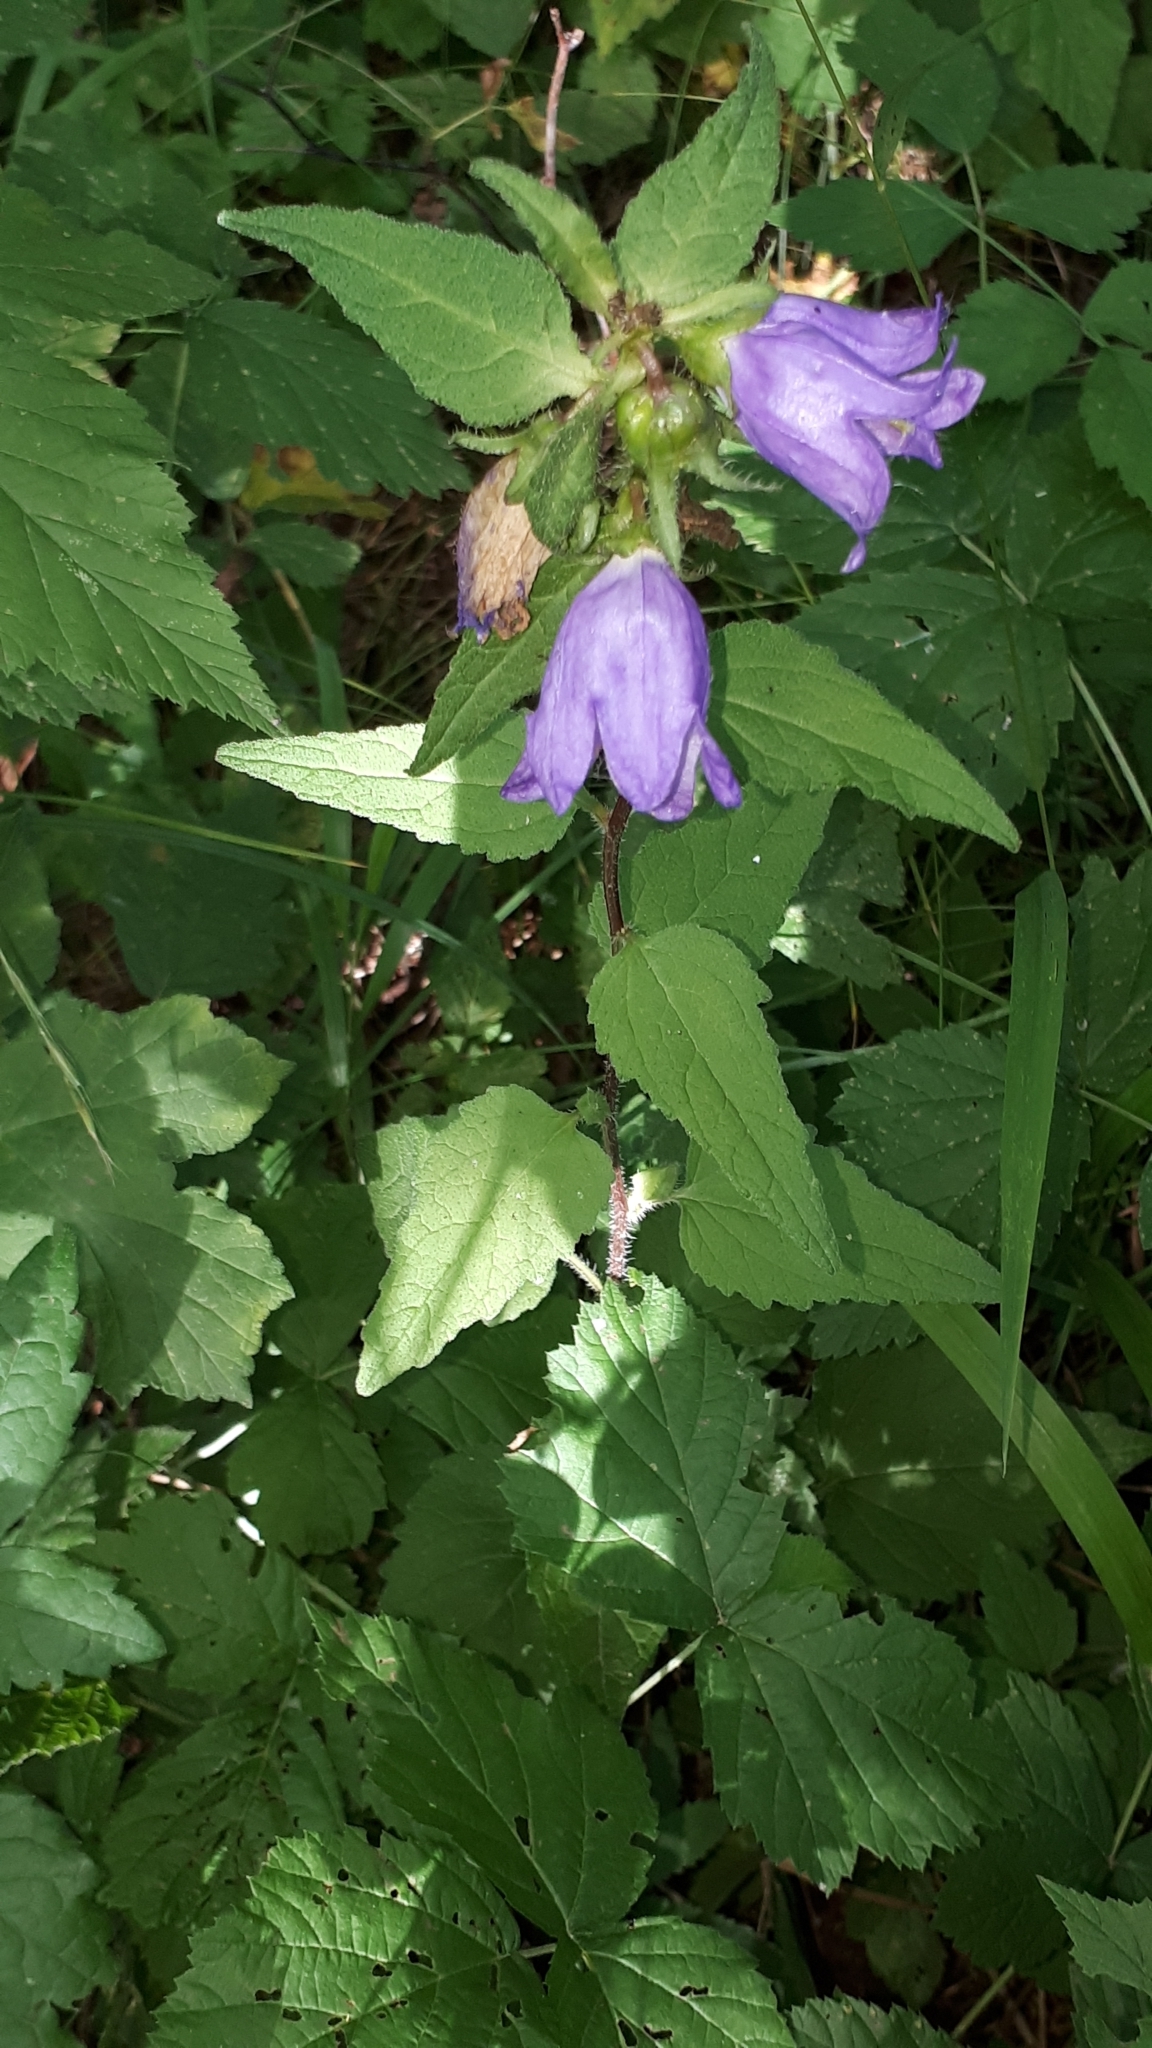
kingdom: Plantae
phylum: Tracheophyta
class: Magnoliopsida
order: Asterales
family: Campanulaceae
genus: Campanula
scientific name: Campanula trachelium
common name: Nettle-leaved bellflower
